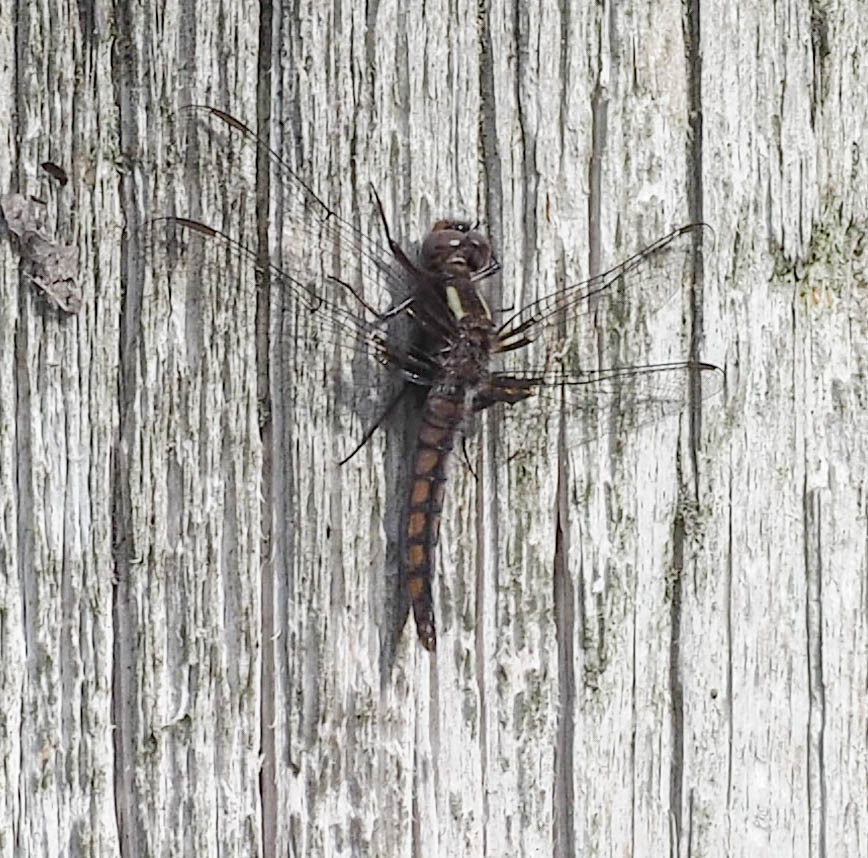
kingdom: Animalia
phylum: Arthropoda
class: Insecta
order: Odonata
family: Libellulidae
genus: Ladona
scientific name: Ladona deplanata
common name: Blue corporal
